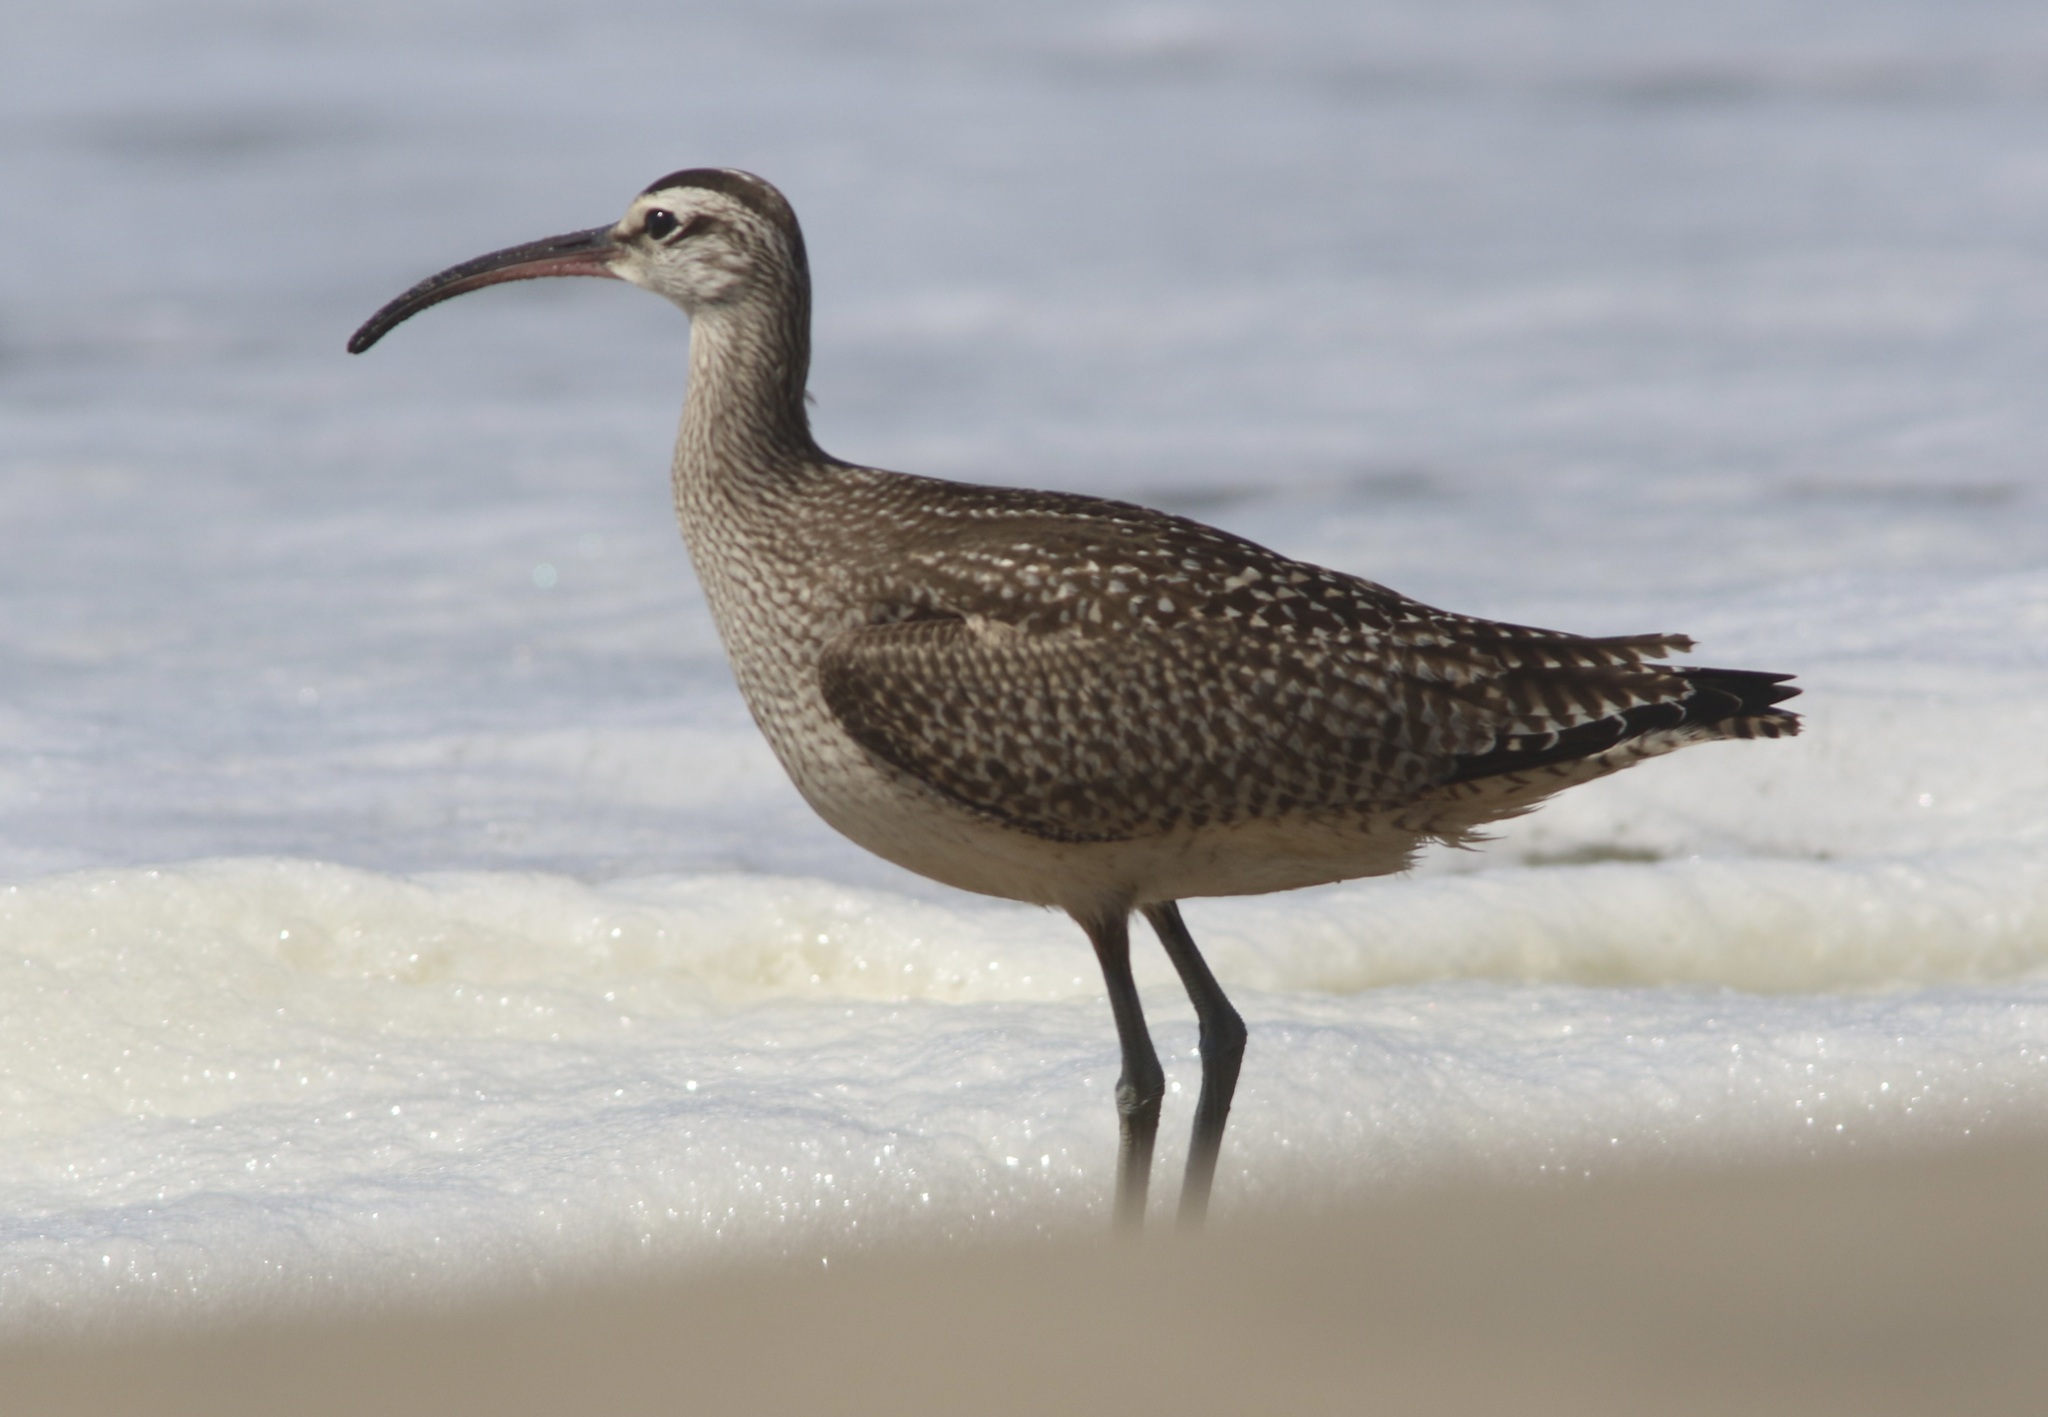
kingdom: Animalia
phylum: Chordata
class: Aves
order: Charadriiformes
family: Scolopacidae
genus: Numenius
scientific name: Numenius phaeopus
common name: Whimbrel
